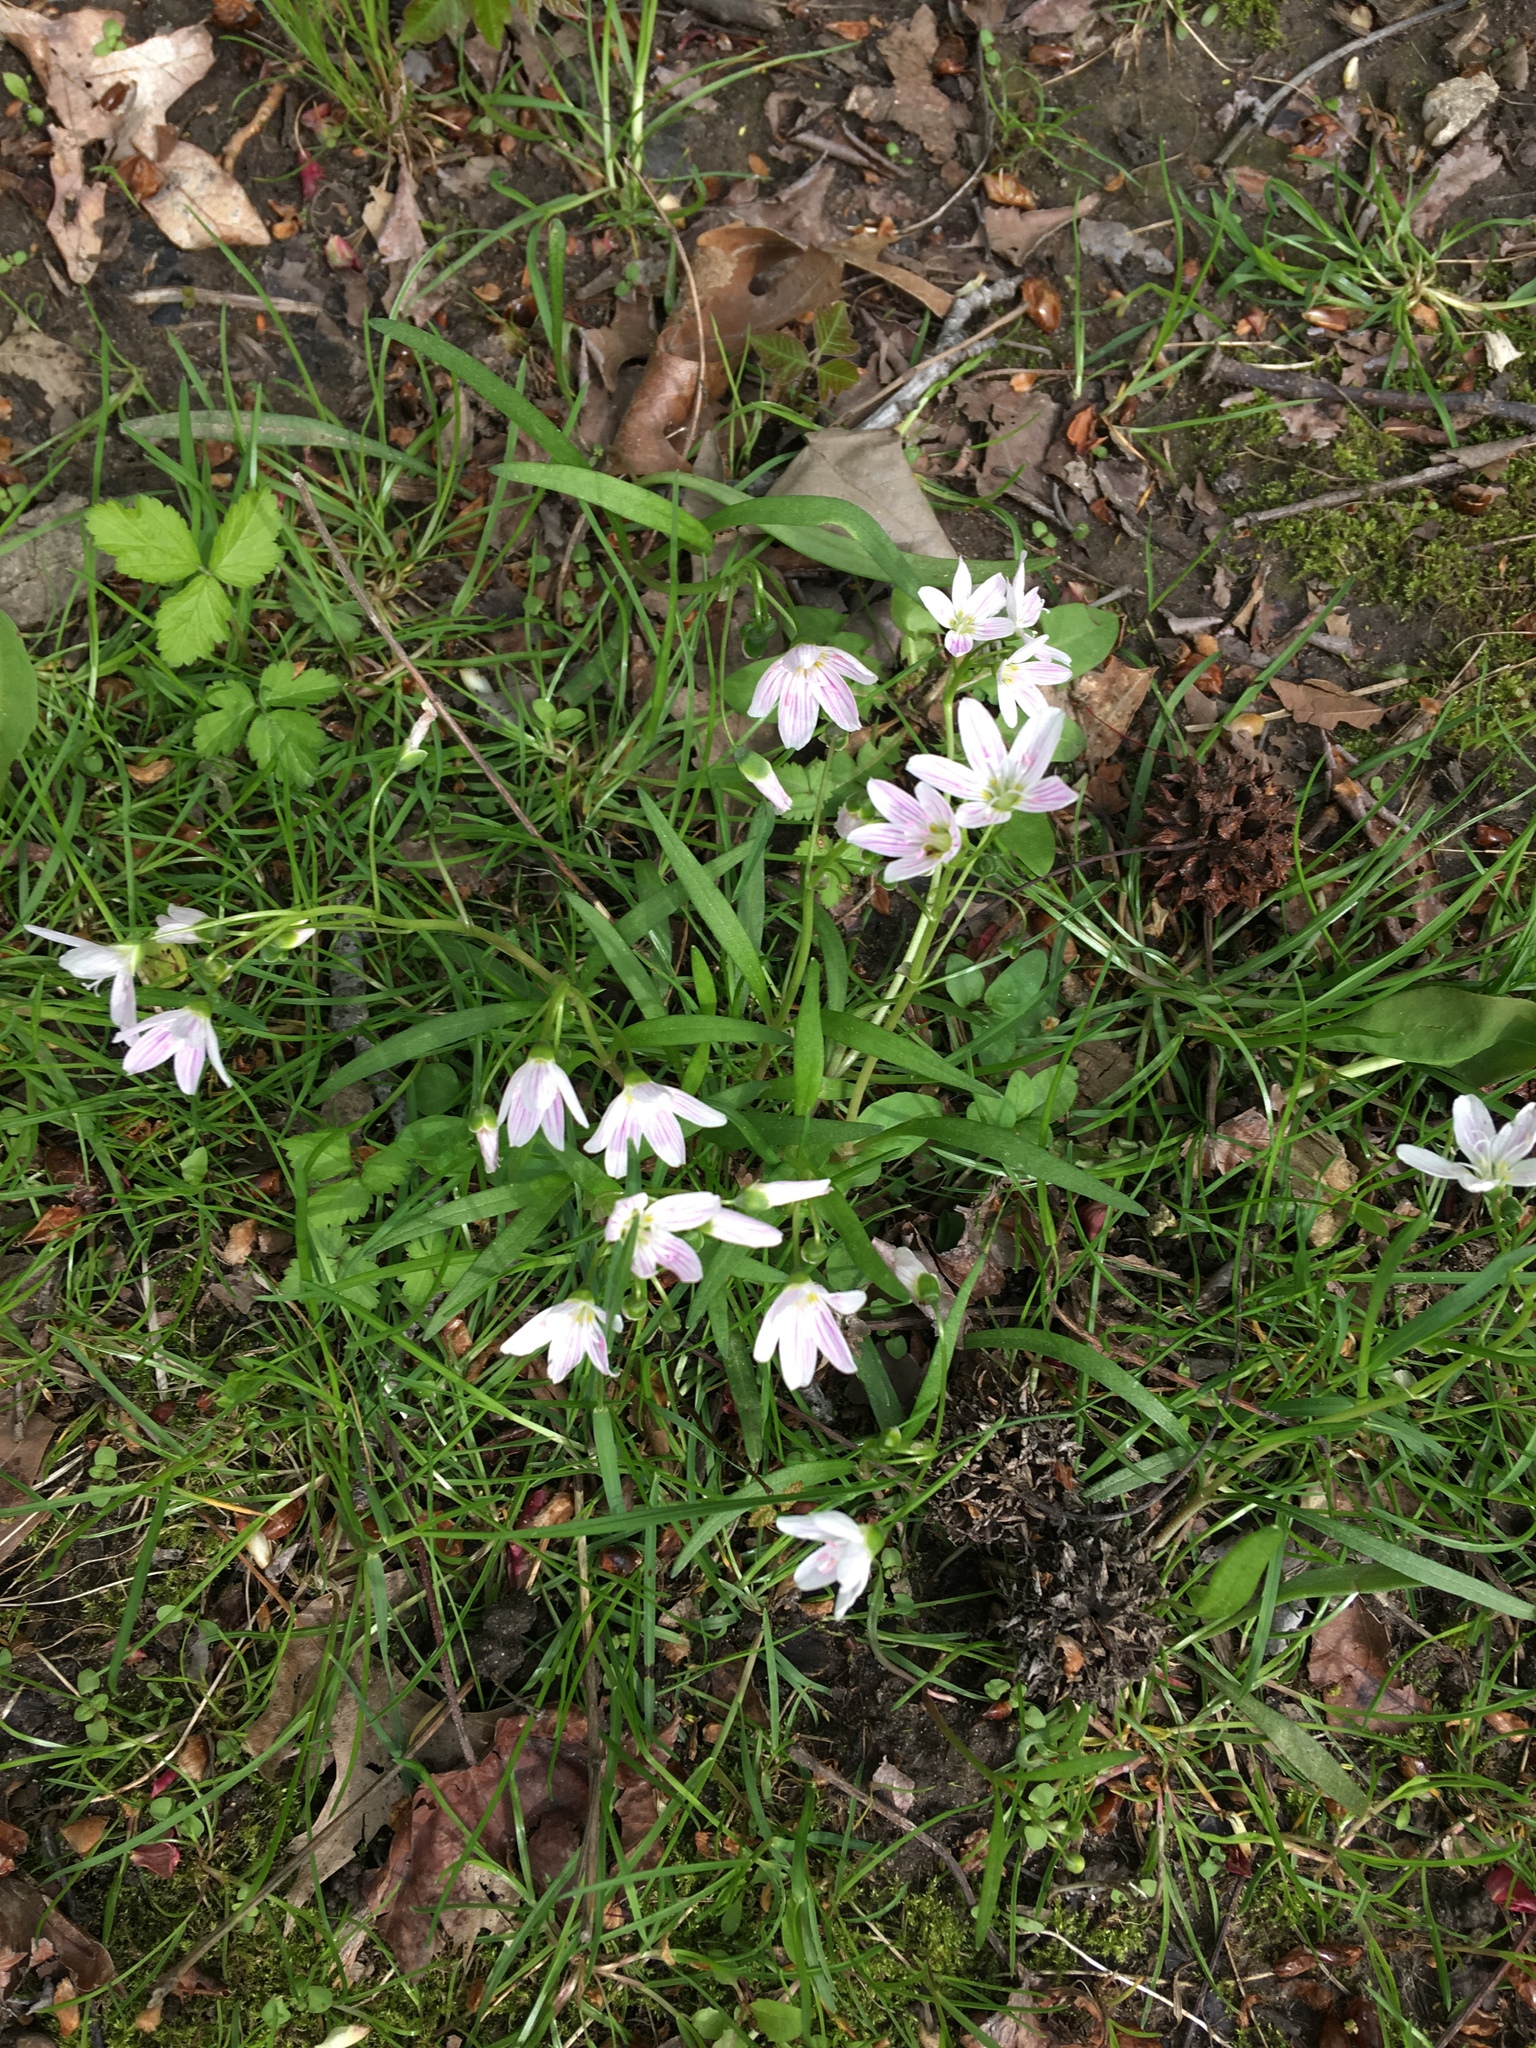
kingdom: Plantae
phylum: Tracheophyta
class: Magnoliopsida
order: Caryophyllales
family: Montiaceae
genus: Claytonia
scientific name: Claytonia virginica
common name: Virginia springbeauty
